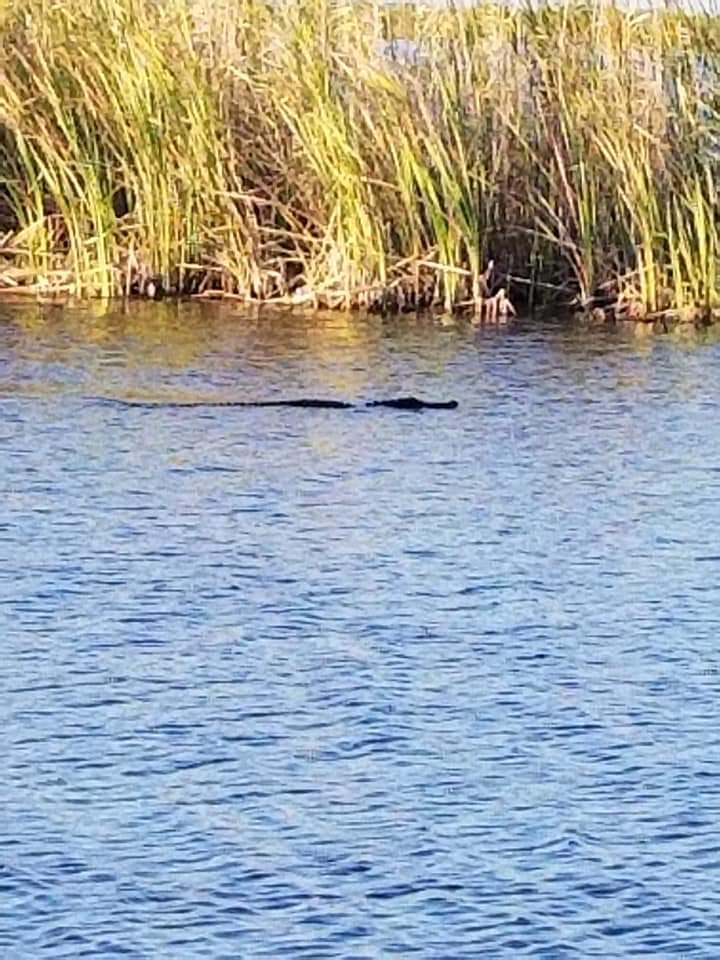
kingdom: Animalia
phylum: Chordata
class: Crocodylia
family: Alligatoridae
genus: Alligator
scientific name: Alligator mississippiensis
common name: American alligator
